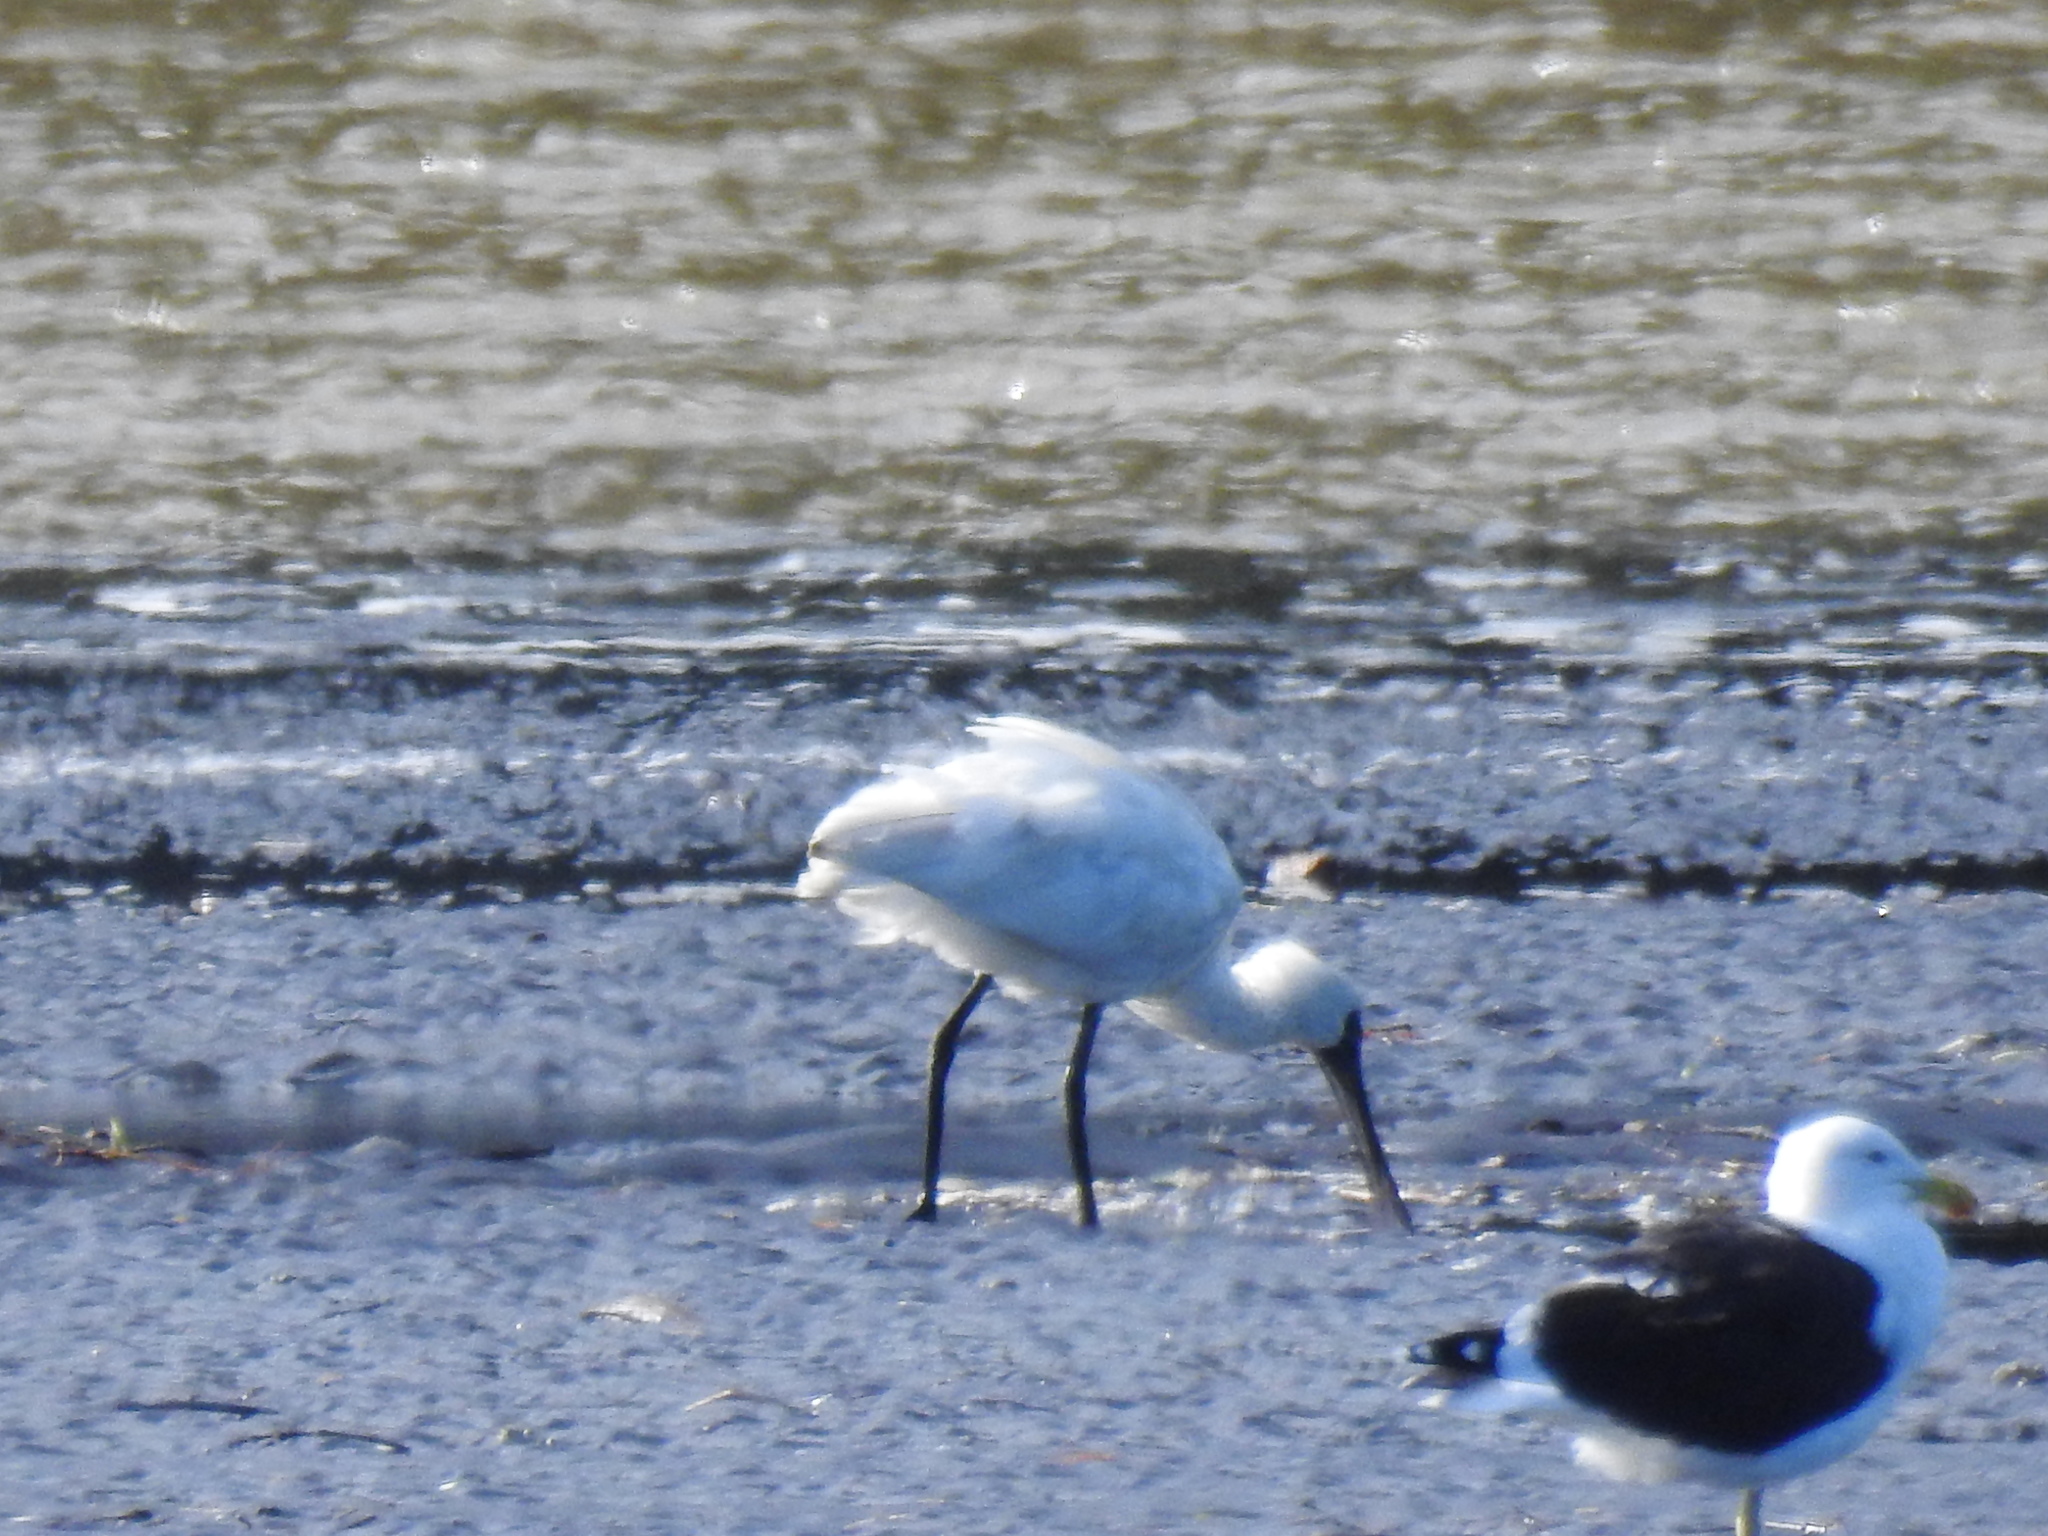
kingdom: Animalia
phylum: Chordata
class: Aves
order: Pelecaniformes
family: Threskiornithidae
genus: Platalea
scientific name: Platalea regia
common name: Royal spoonbill
